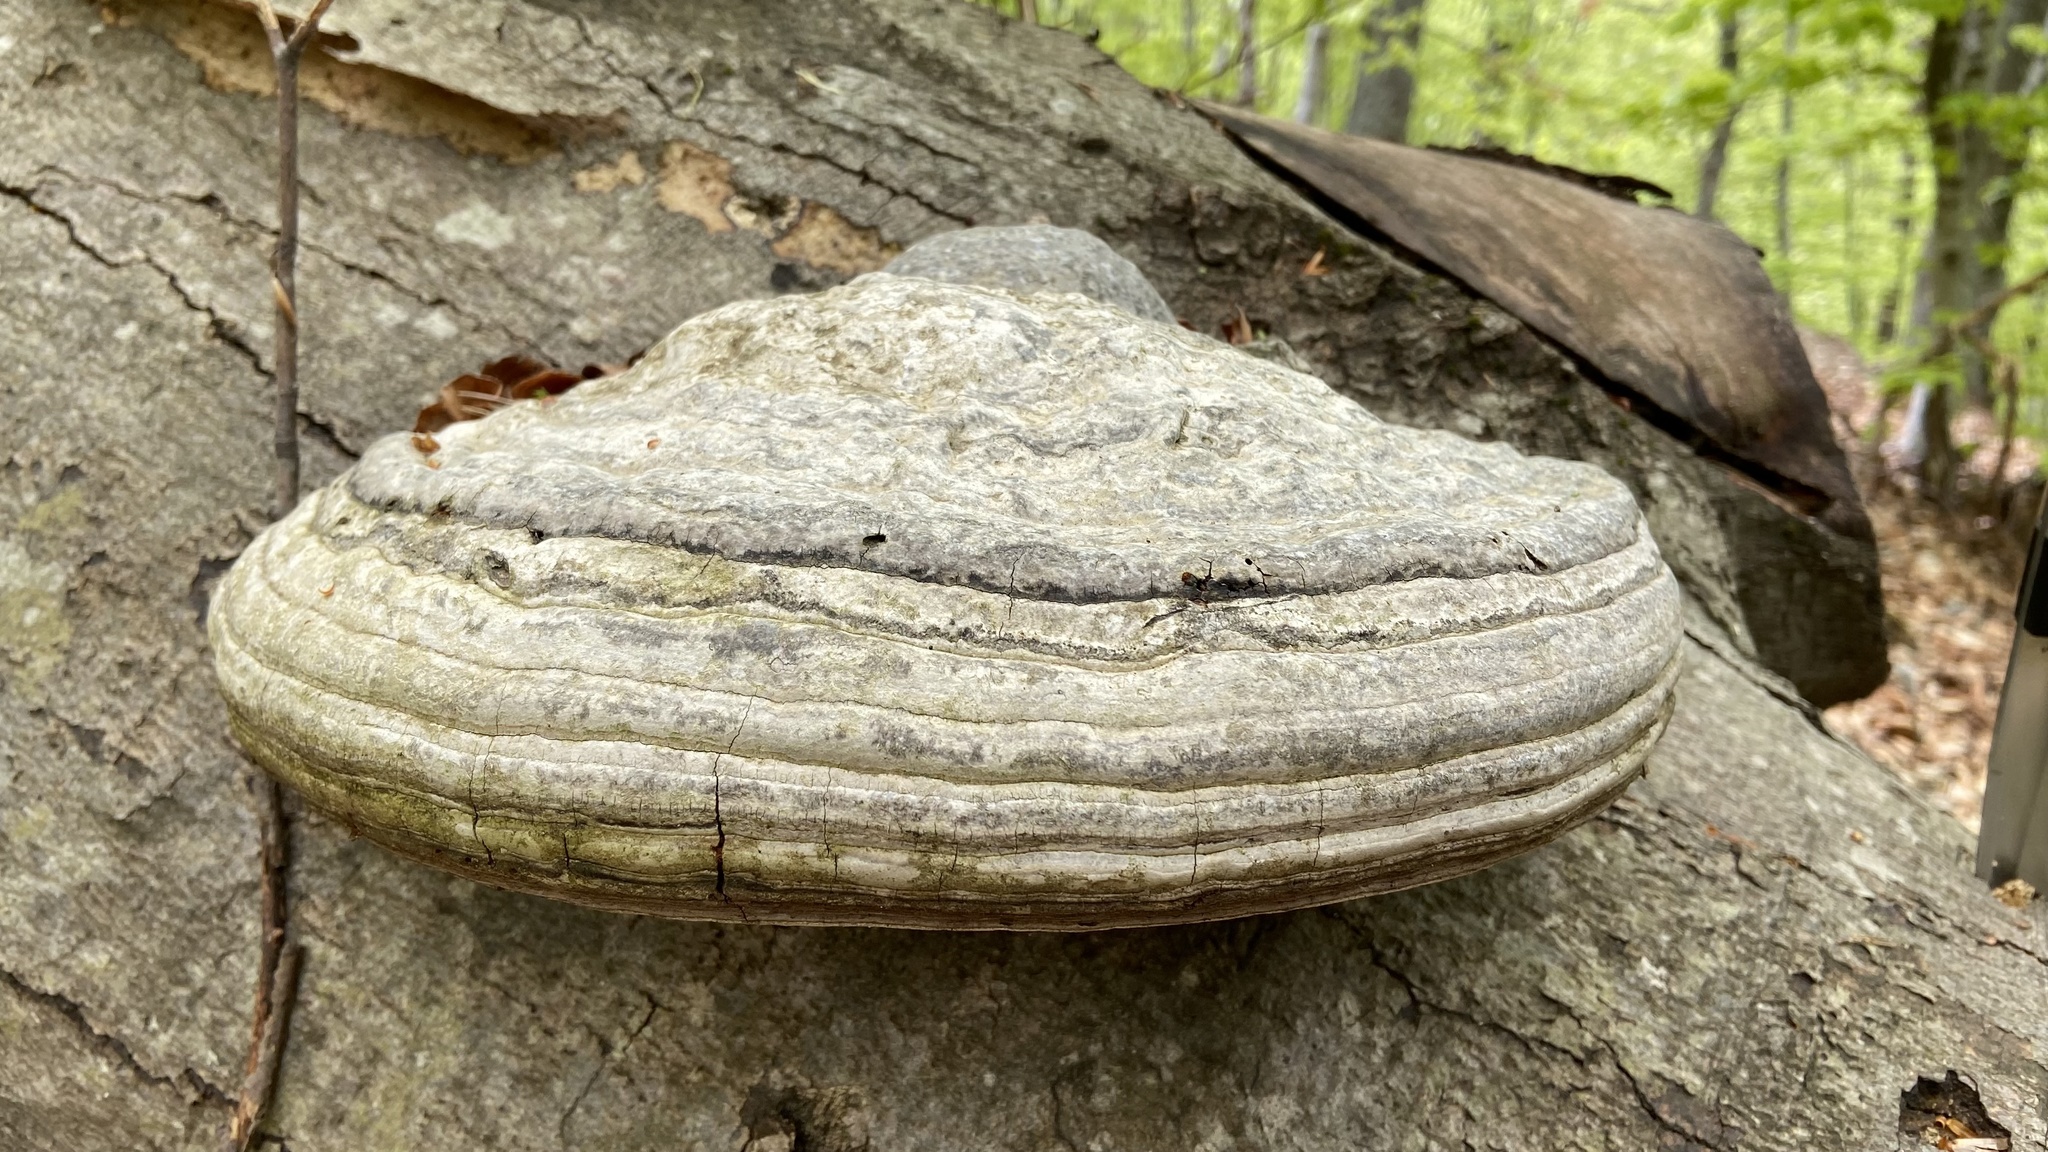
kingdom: Fungi
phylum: Basidiomycota
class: Agaricomycetes
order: Polyporales
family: Polyporaceae
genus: Fomes
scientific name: Fomes fomentarius
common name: Hoof fungus
